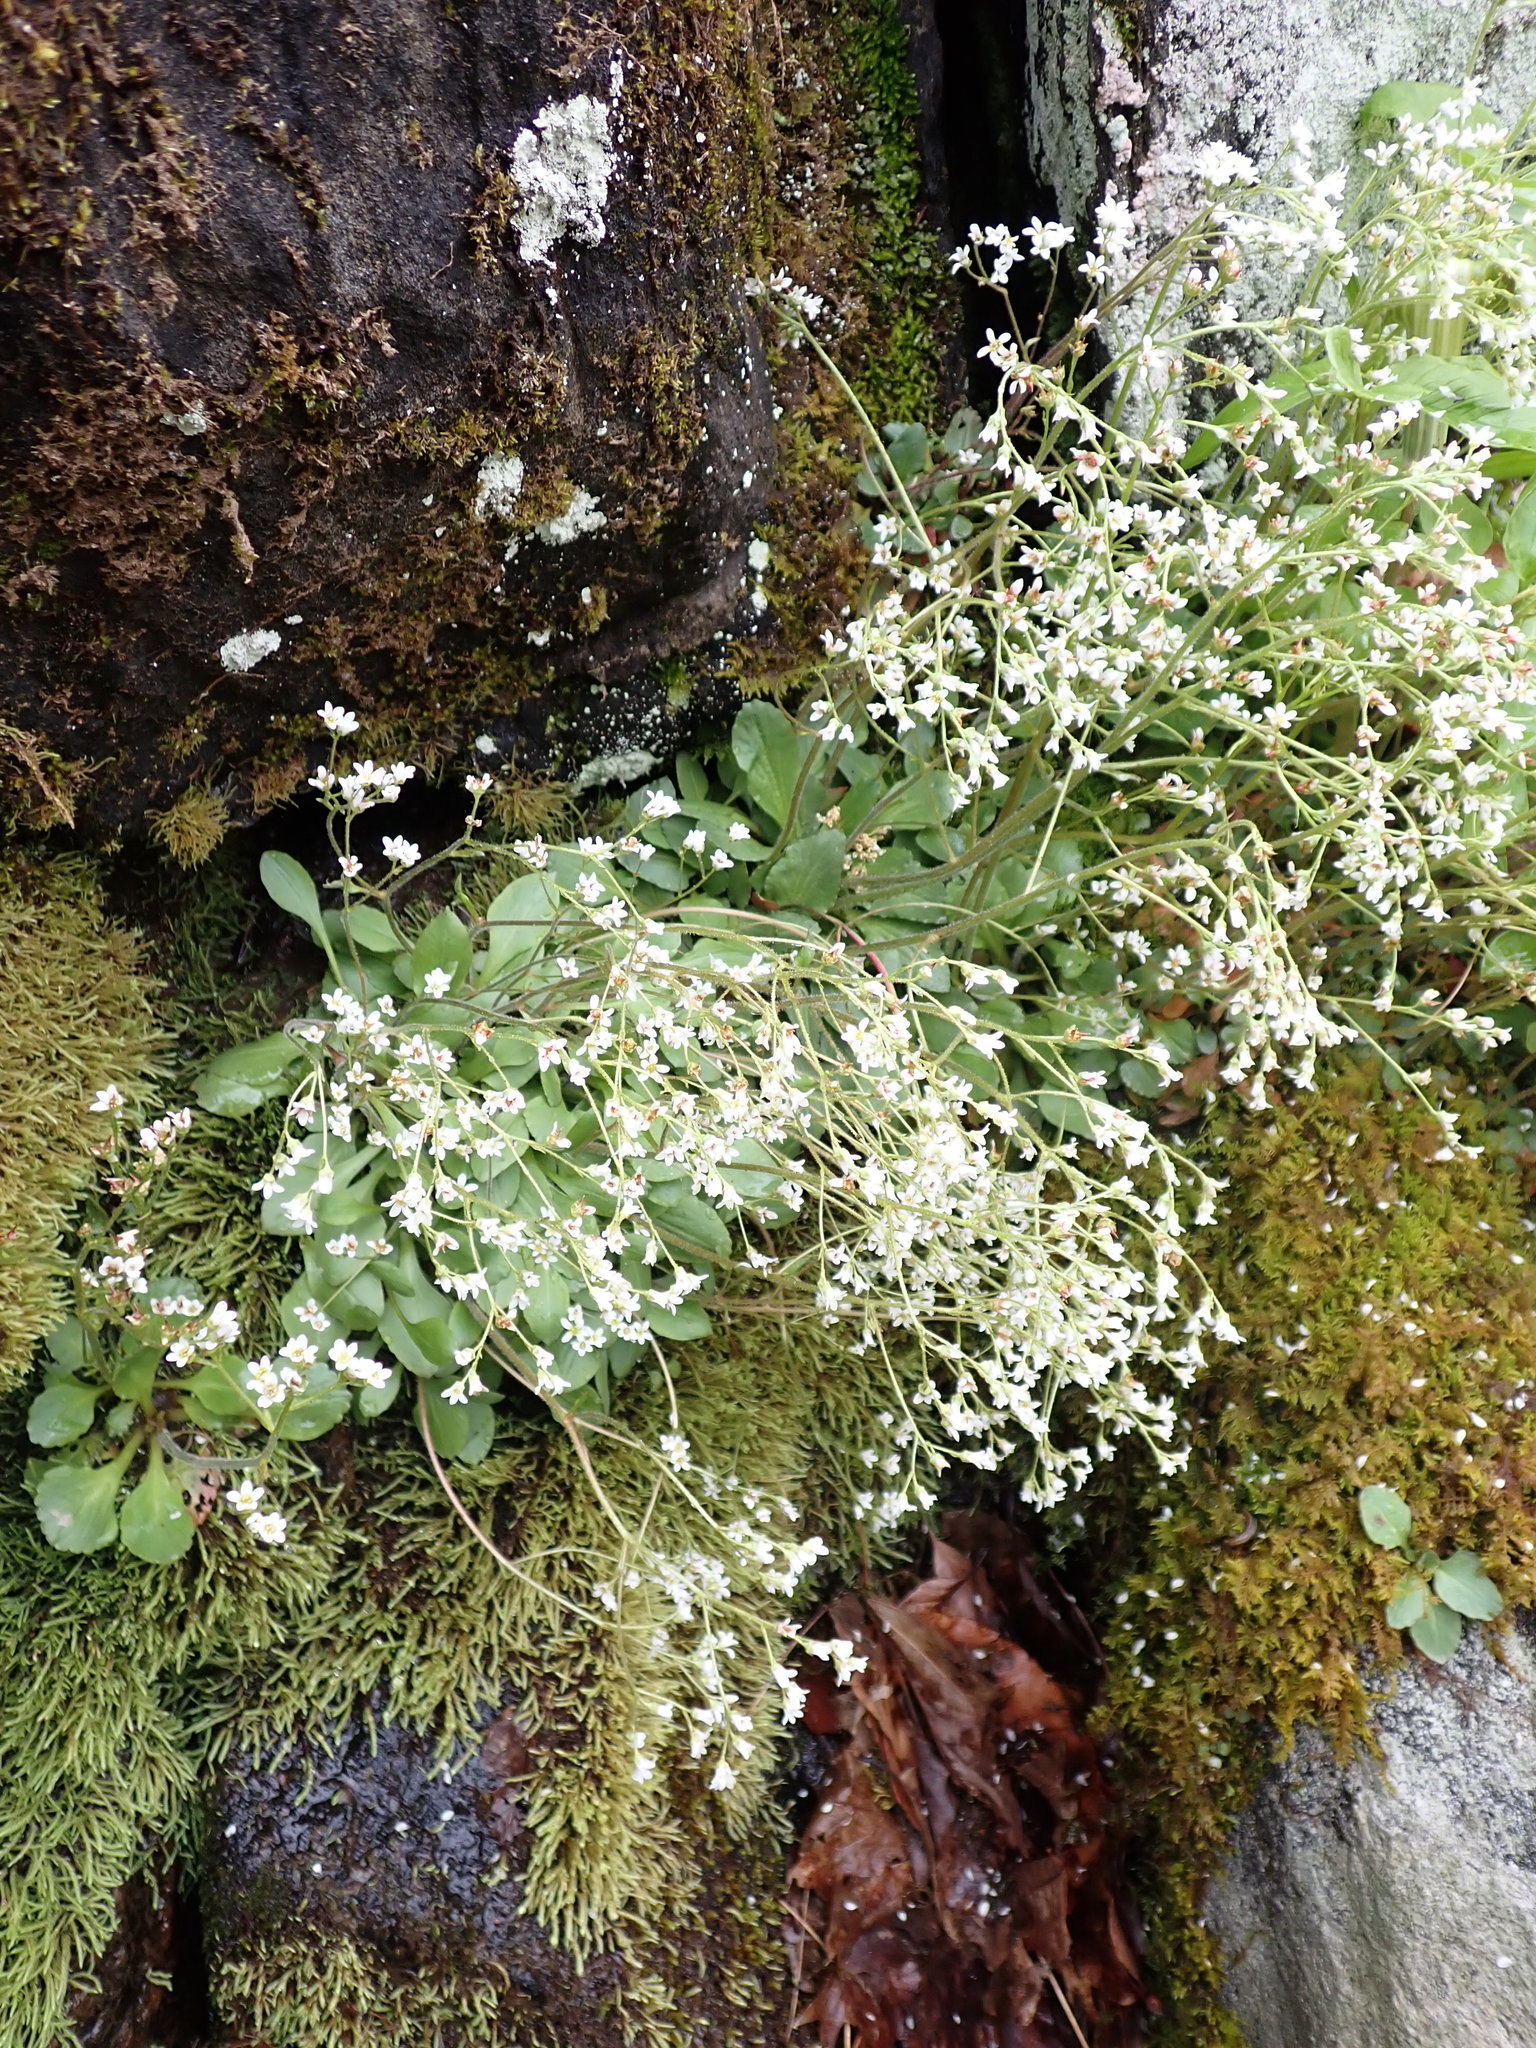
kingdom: Plantae
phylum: Tracheophyta
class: Magnoliopsida
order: Saxifragales
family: Saxifragaceae
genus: Micranthes
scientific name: Micranthes virginiensis
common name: Early saxifrage
